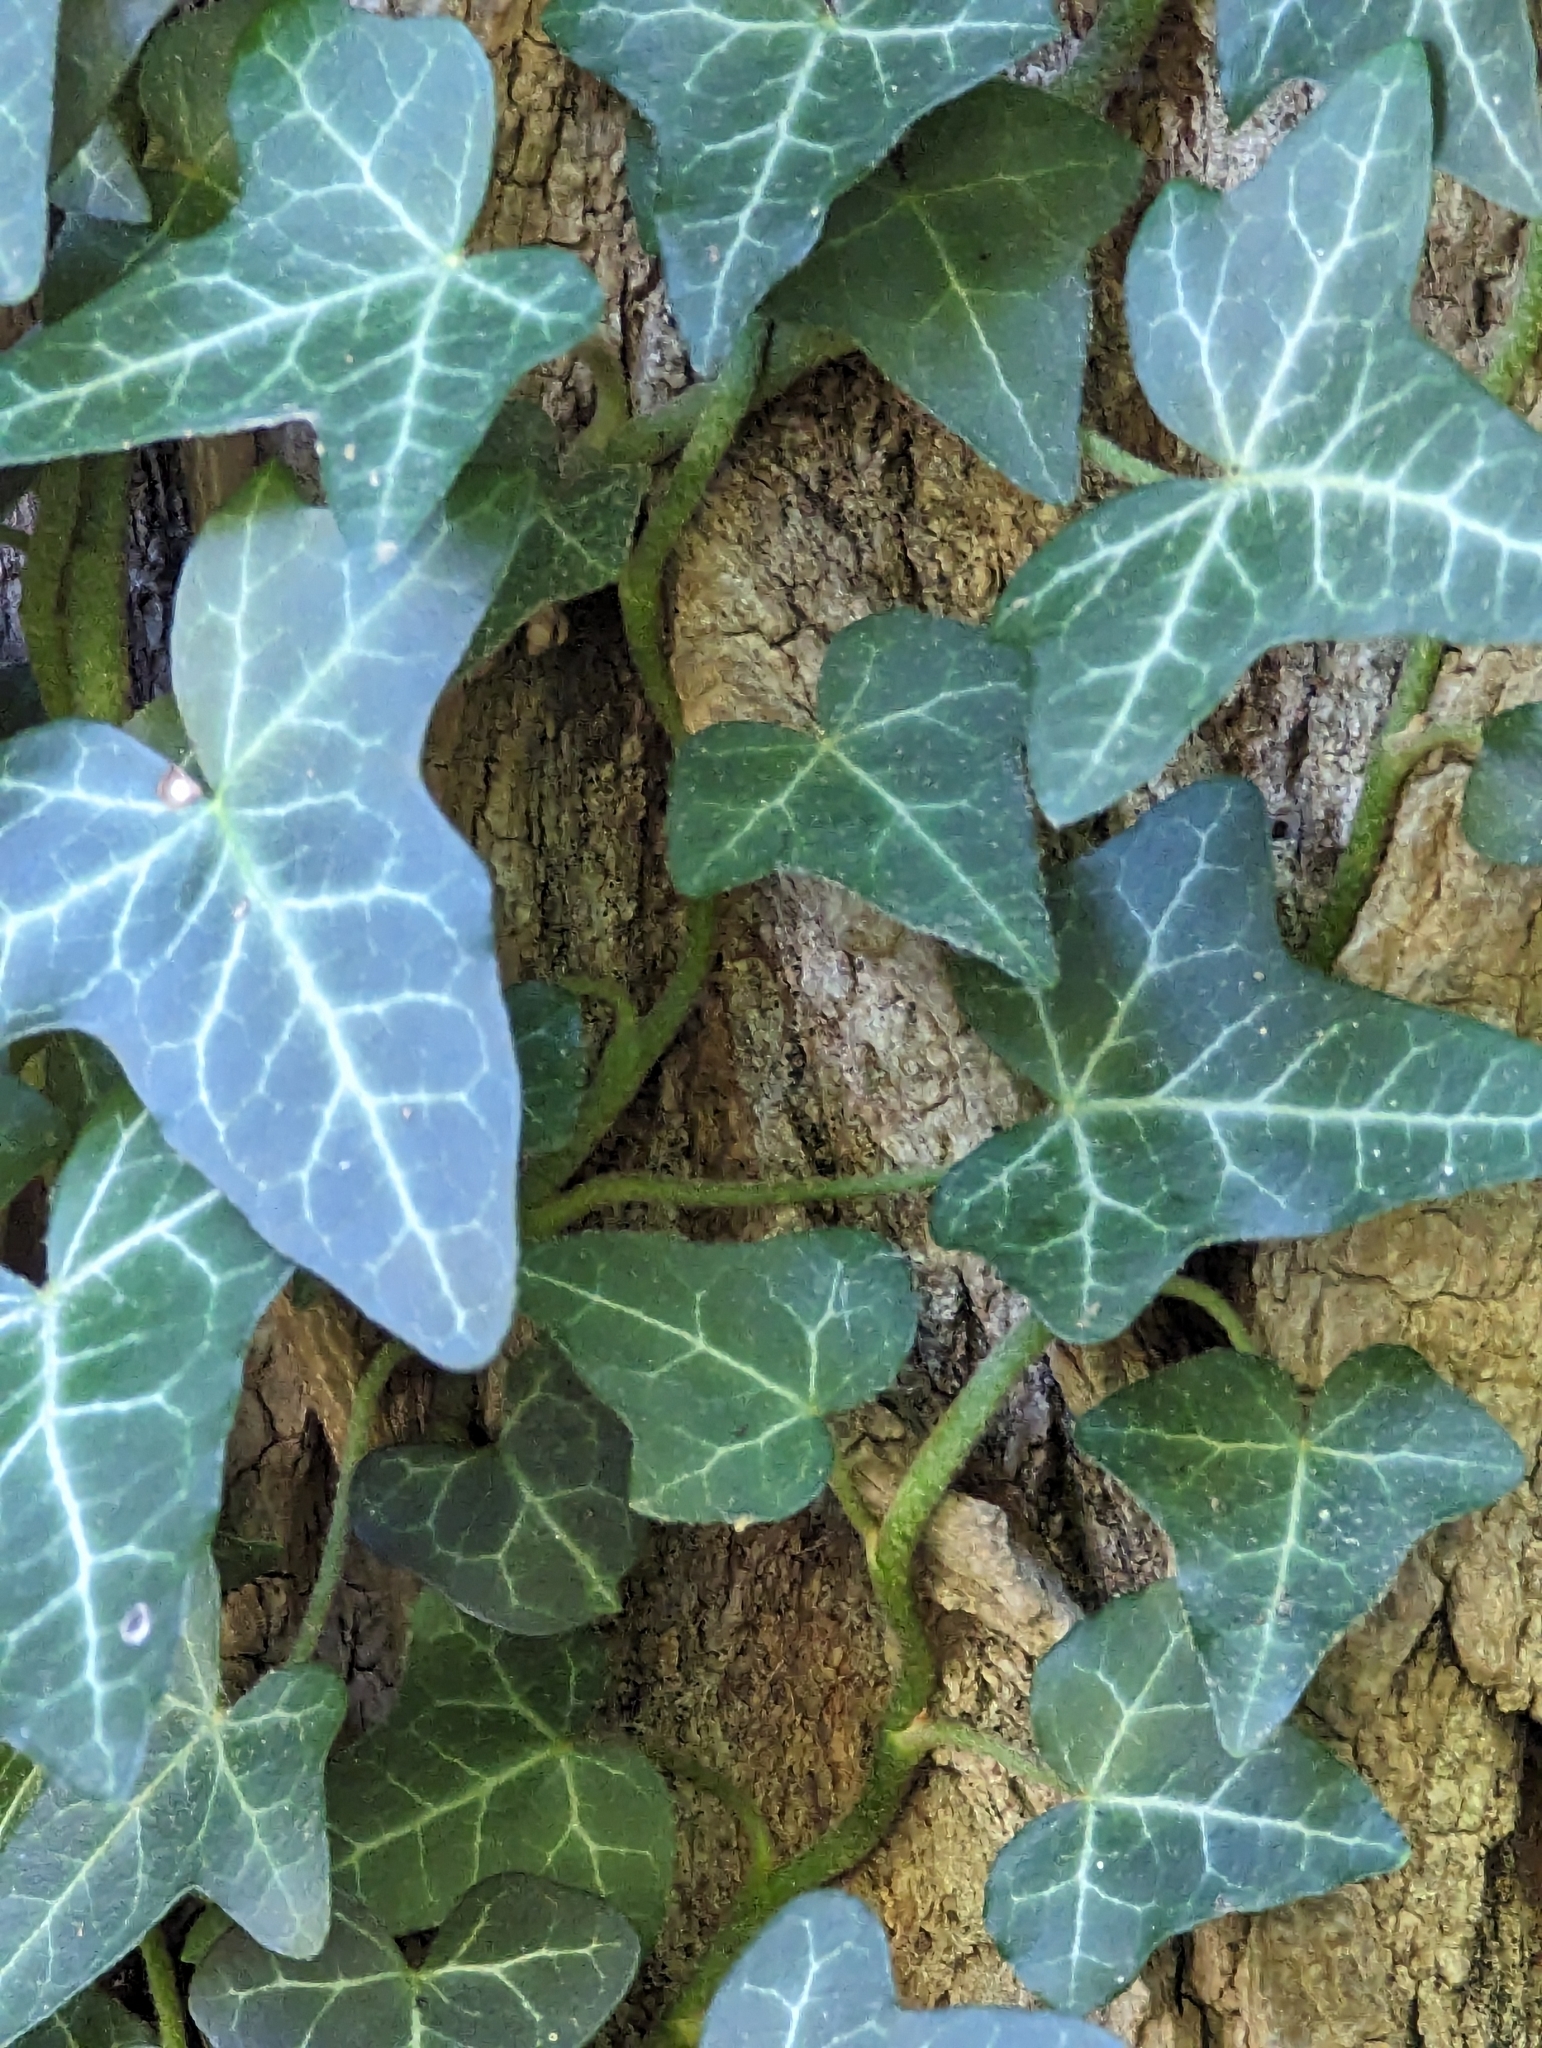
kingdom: Plantae
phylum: Tracheophyta
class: Magnoliopsida
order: Apiales
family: Araliaceae
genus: Hedera
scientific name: Hedera helix
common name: Ivy
